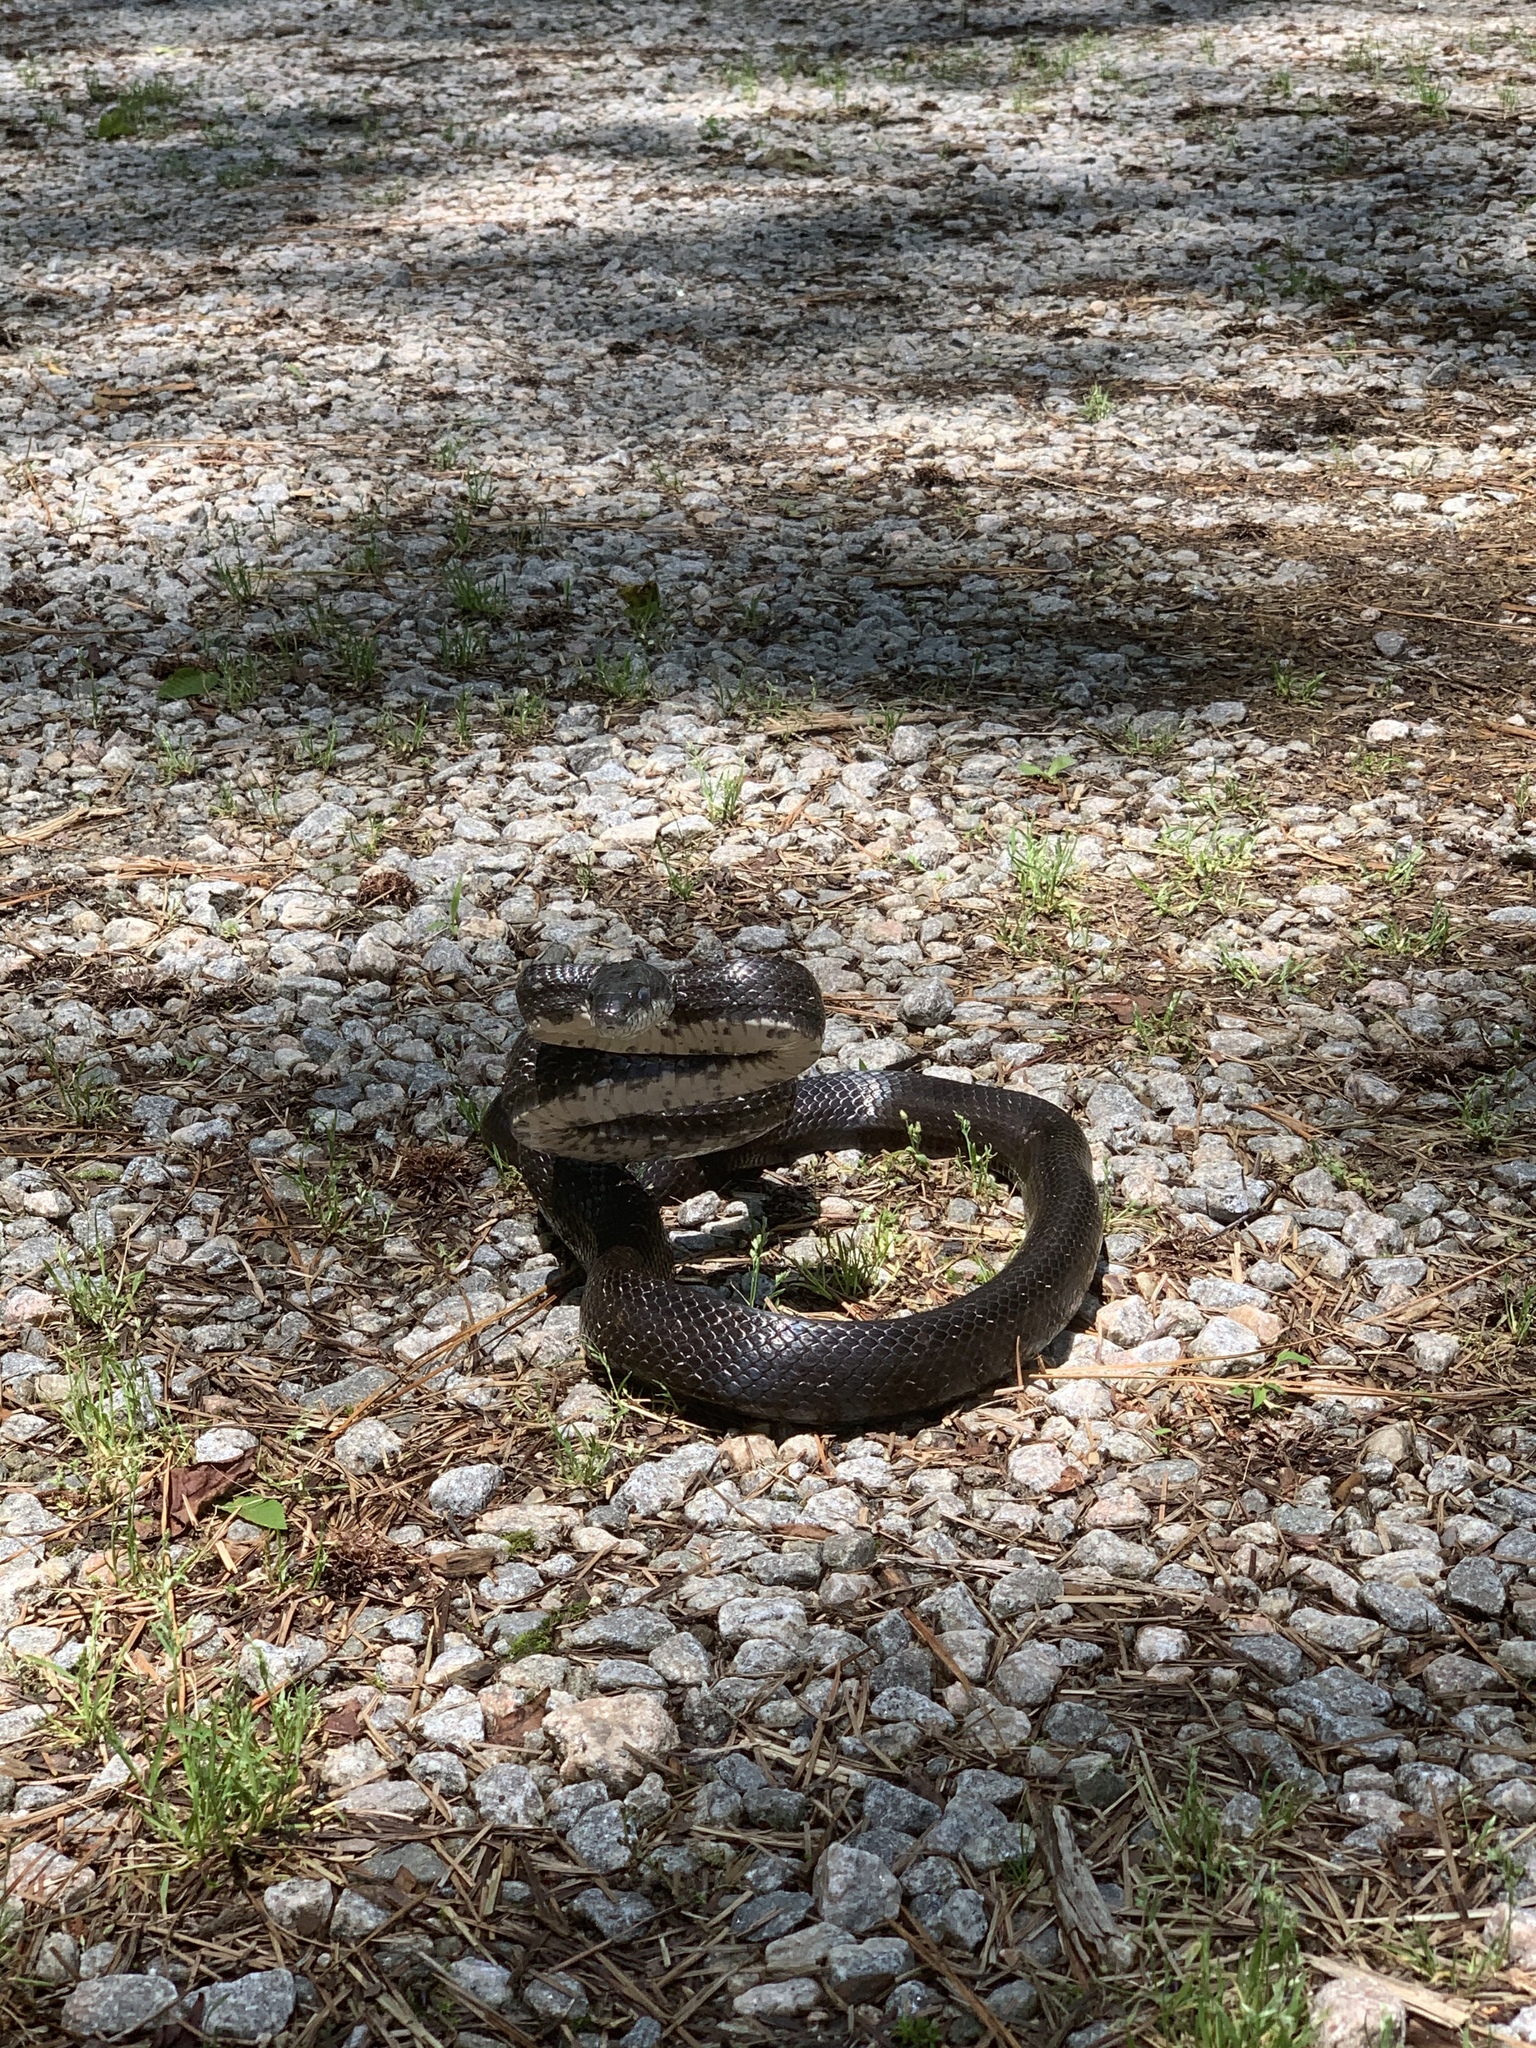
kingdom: Animalia
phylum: Chordata
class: Squamata
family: Colubridae
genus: Pantherophis
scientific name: Pantherophis alleghaniensis
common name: Eastern rat snake
